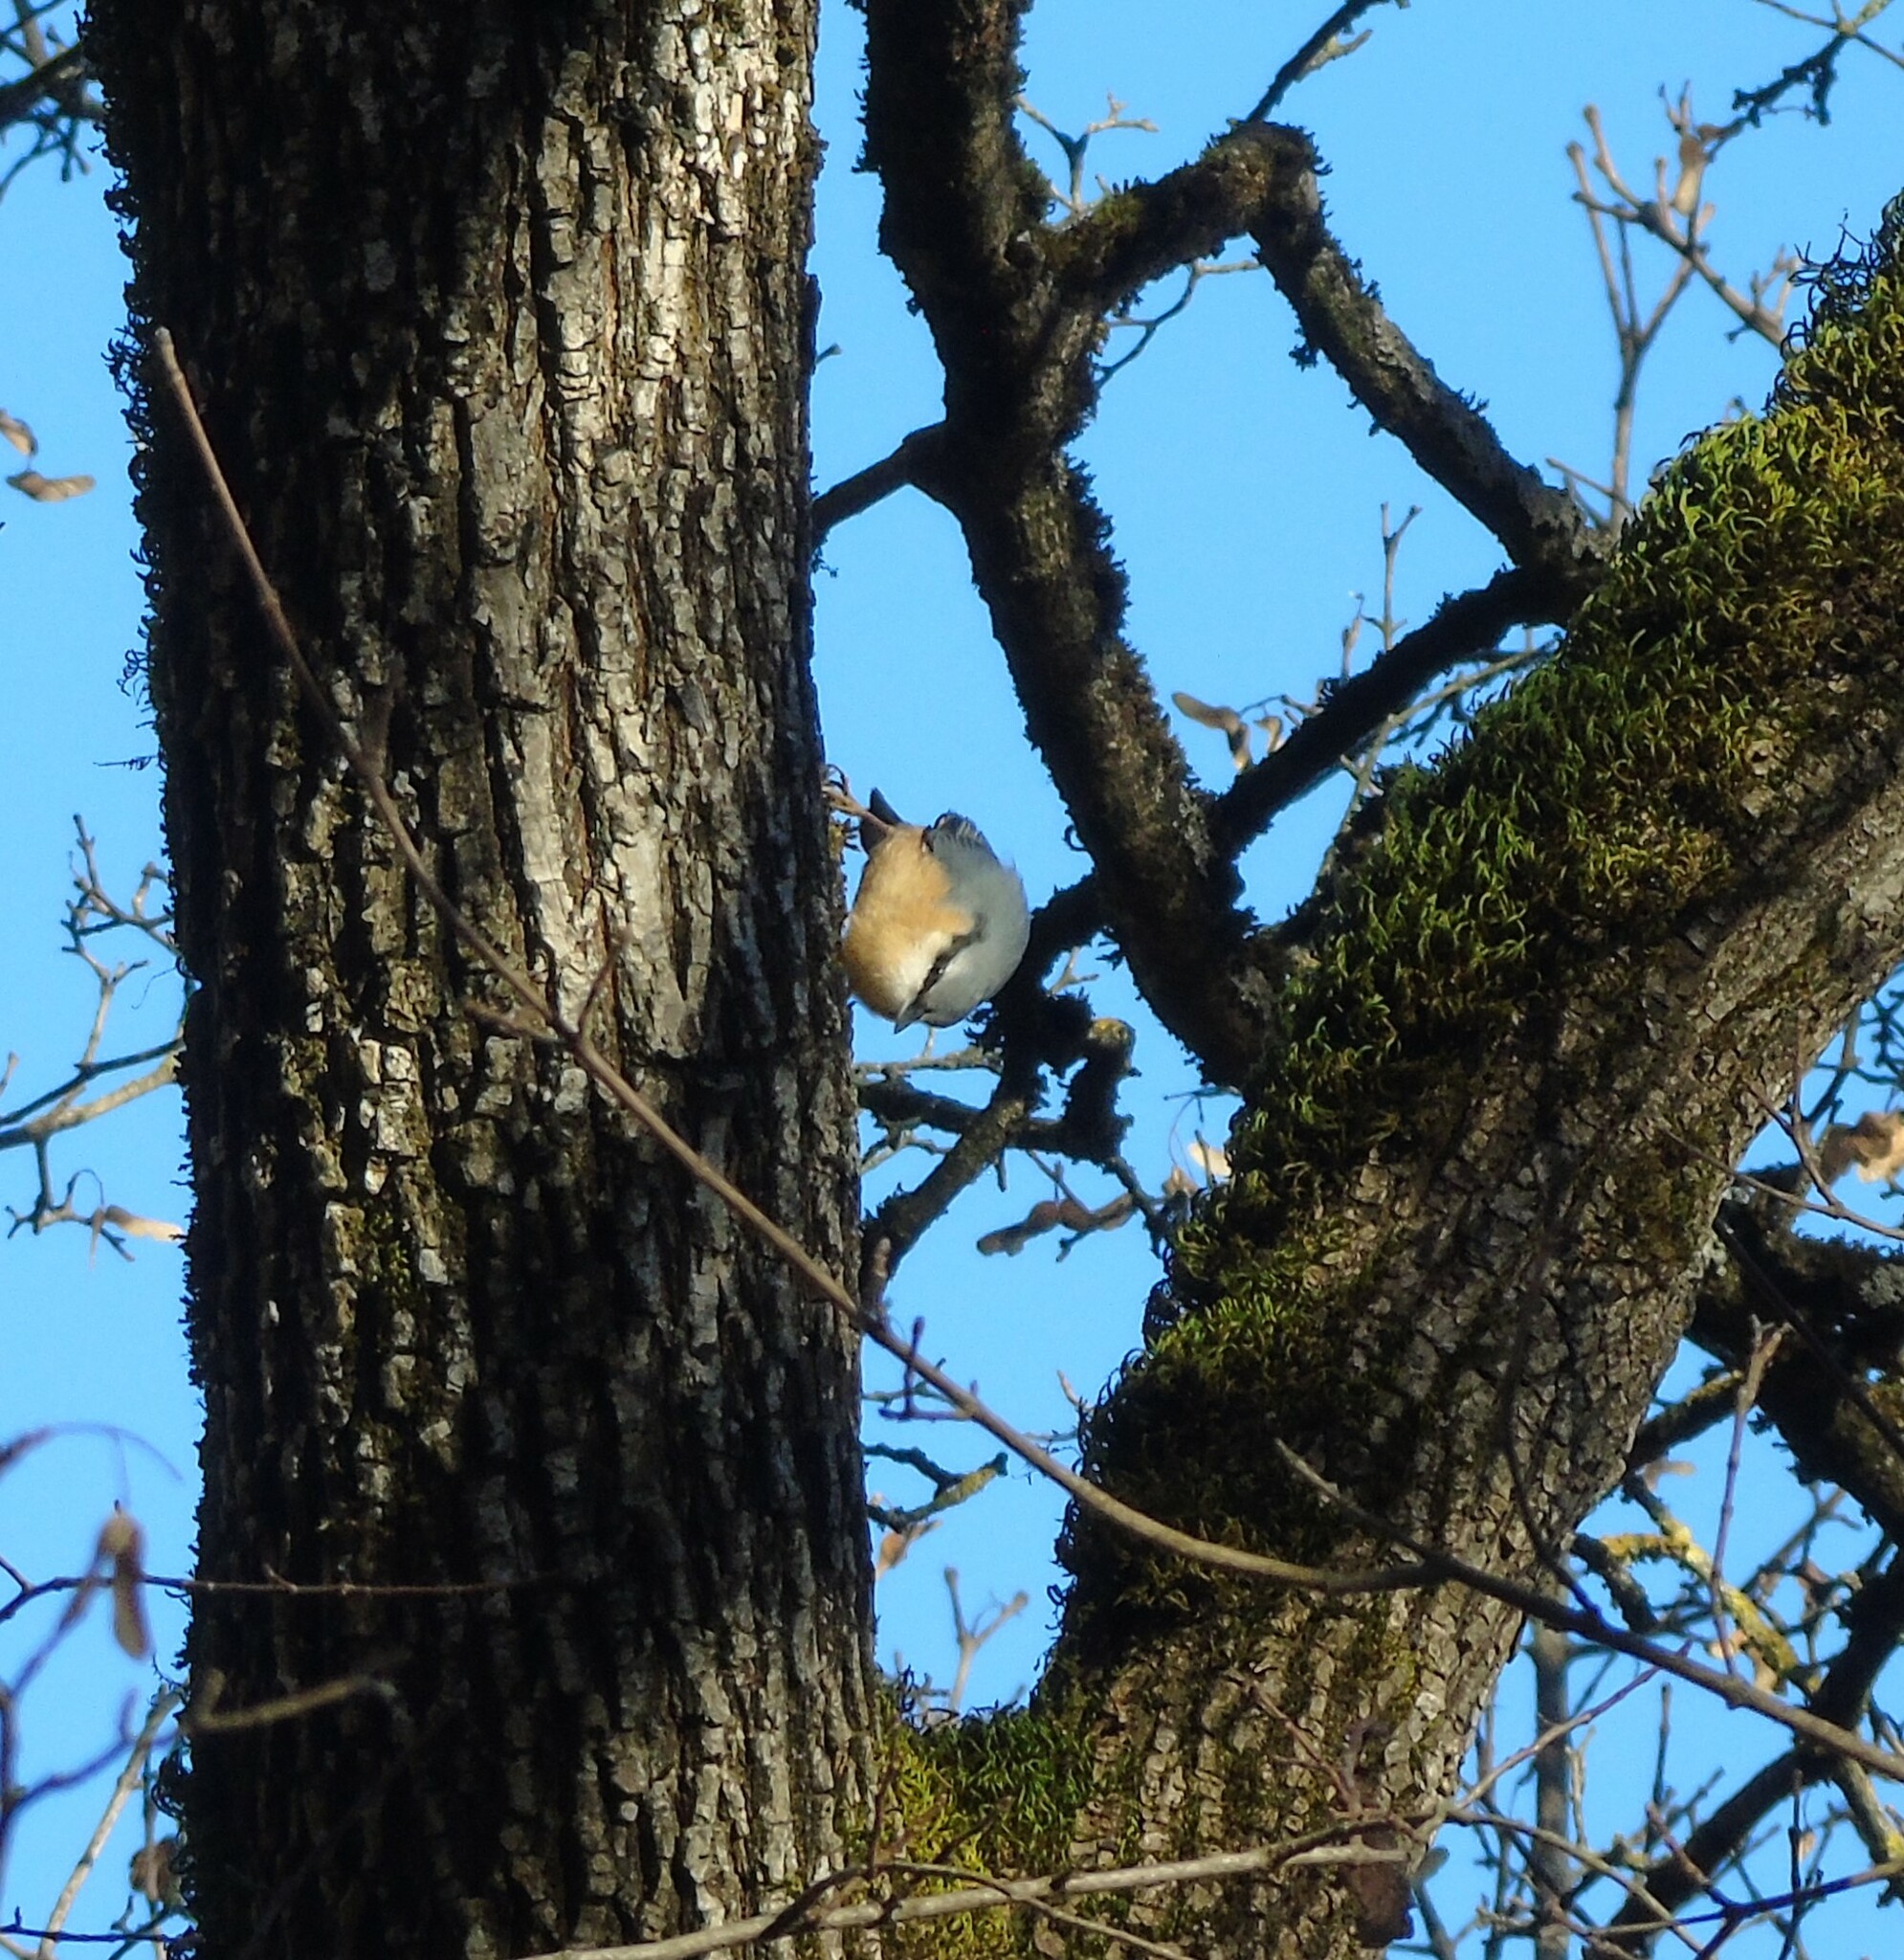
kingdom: Animalia
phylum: Chordata
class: Aves
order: Passeriformes
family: Sittidae
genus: Sitta
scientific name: Sitta europaea
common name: Eurasian nuthatch
